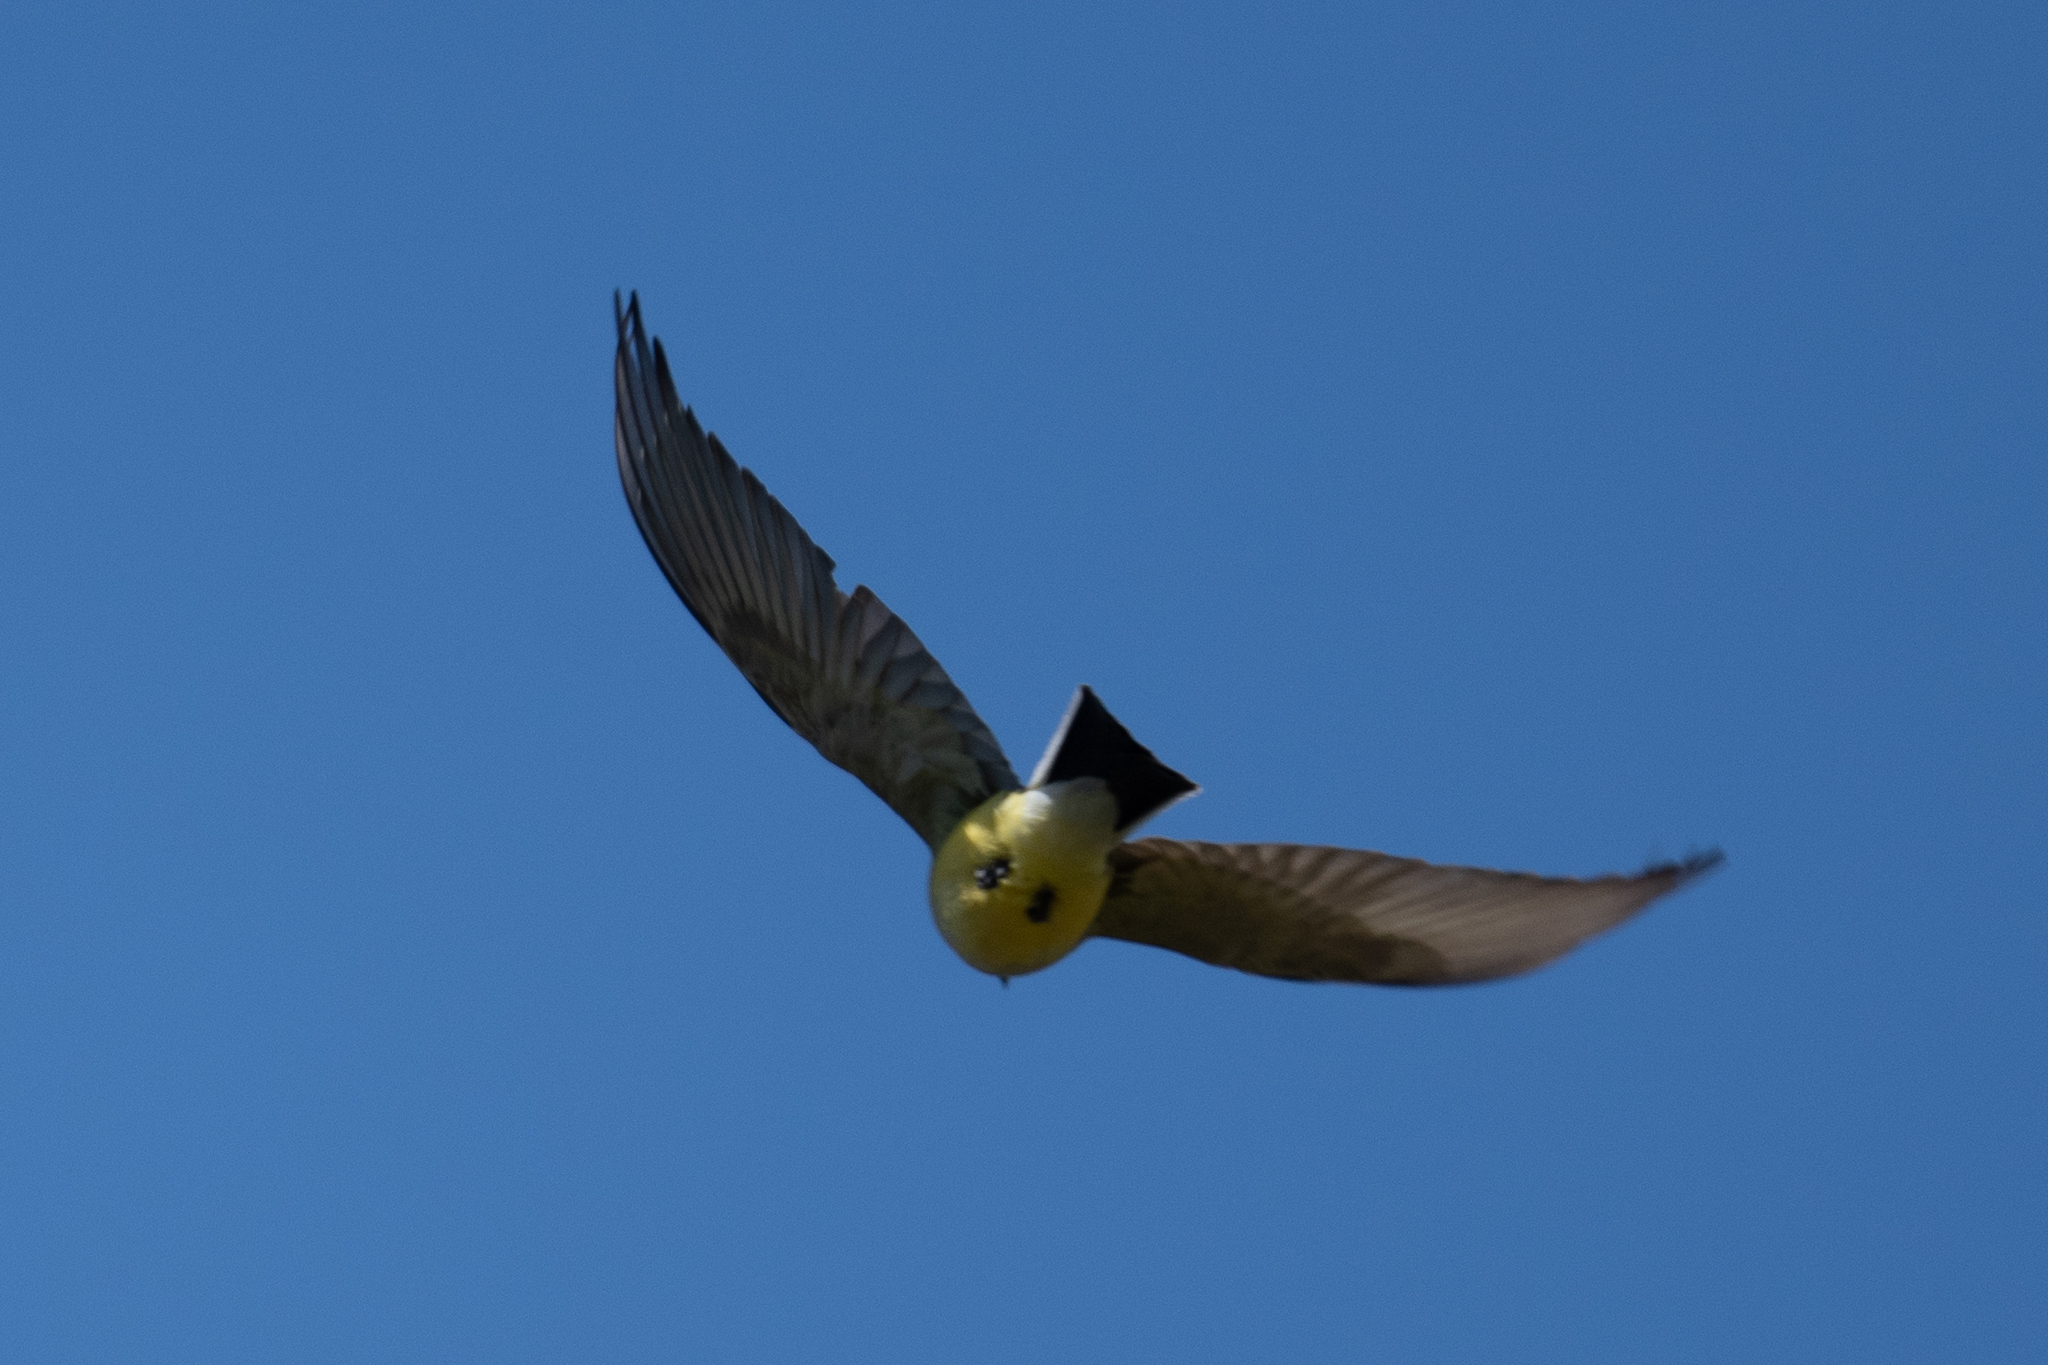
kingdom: Animalia
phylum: Chordata
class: Aves
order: Passeriformes
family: Tyrannidae
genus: Tyrannus
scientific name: Tyrannus verticalis
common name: Western kingbird
